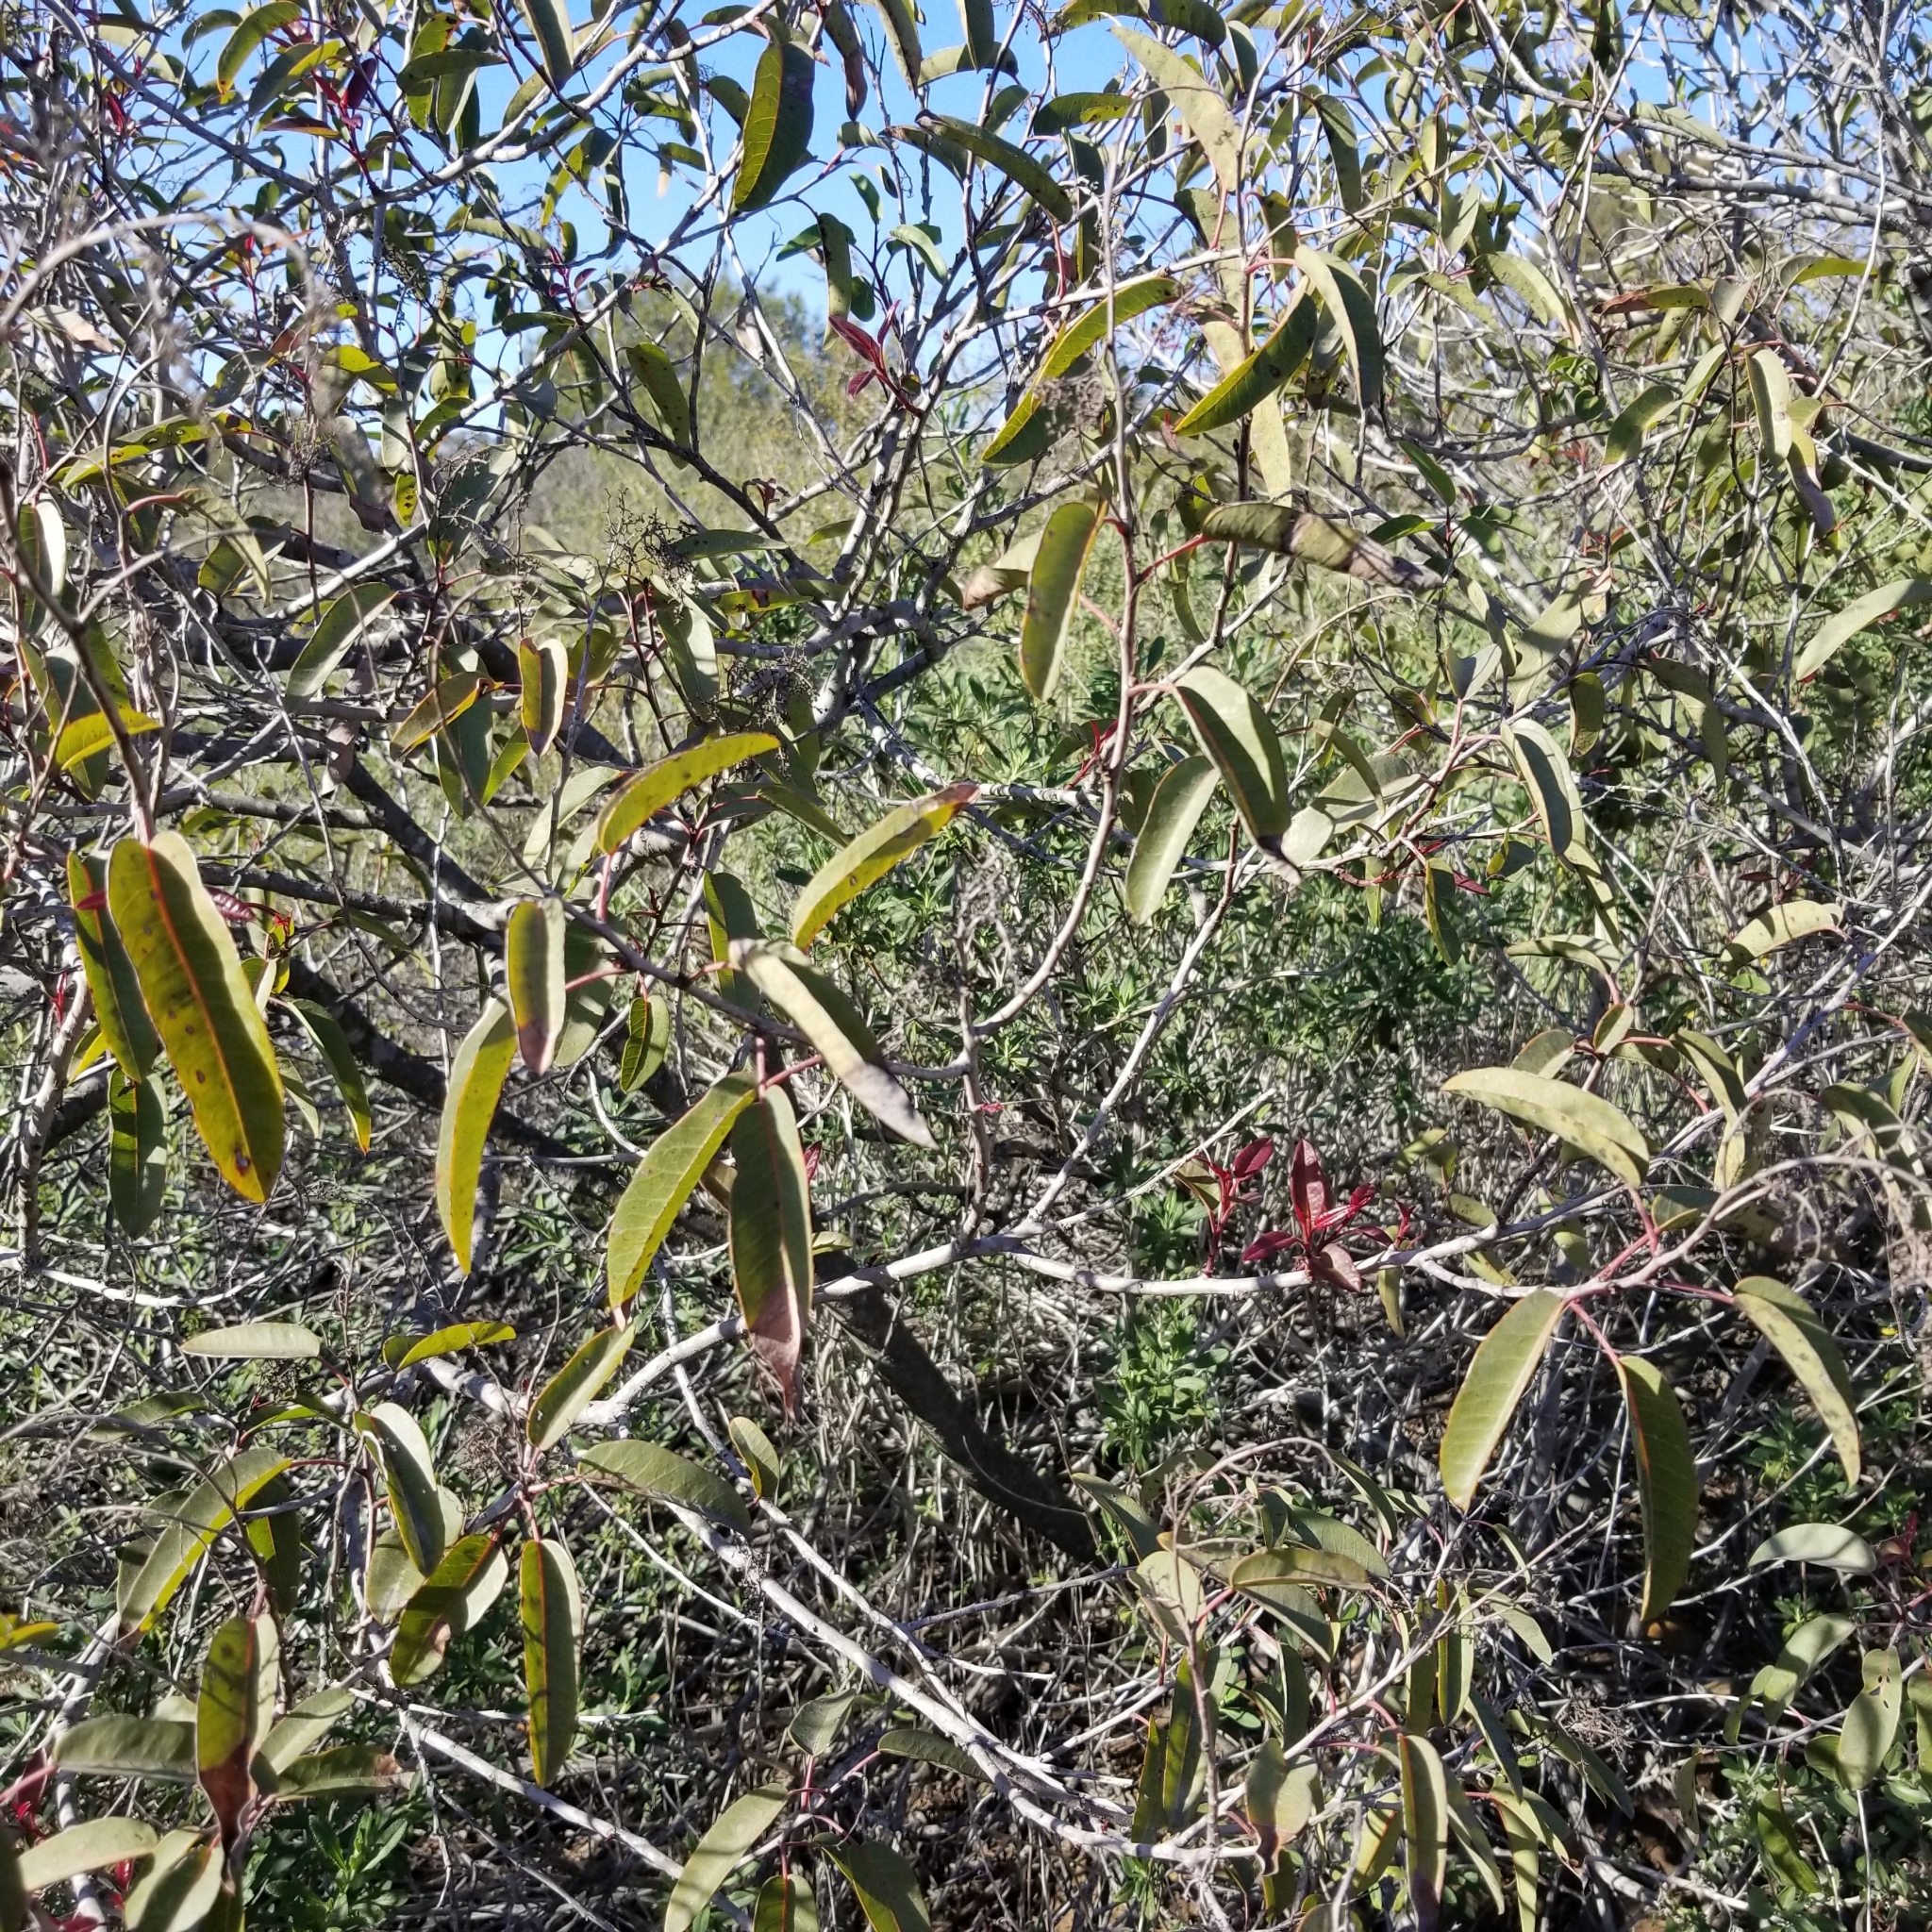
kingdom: Plantae
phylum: Tracheophyta
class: Magnoliopsida
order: Sapindales
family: Anacardiaceae
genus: Malosma
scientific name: Malosma laurina
